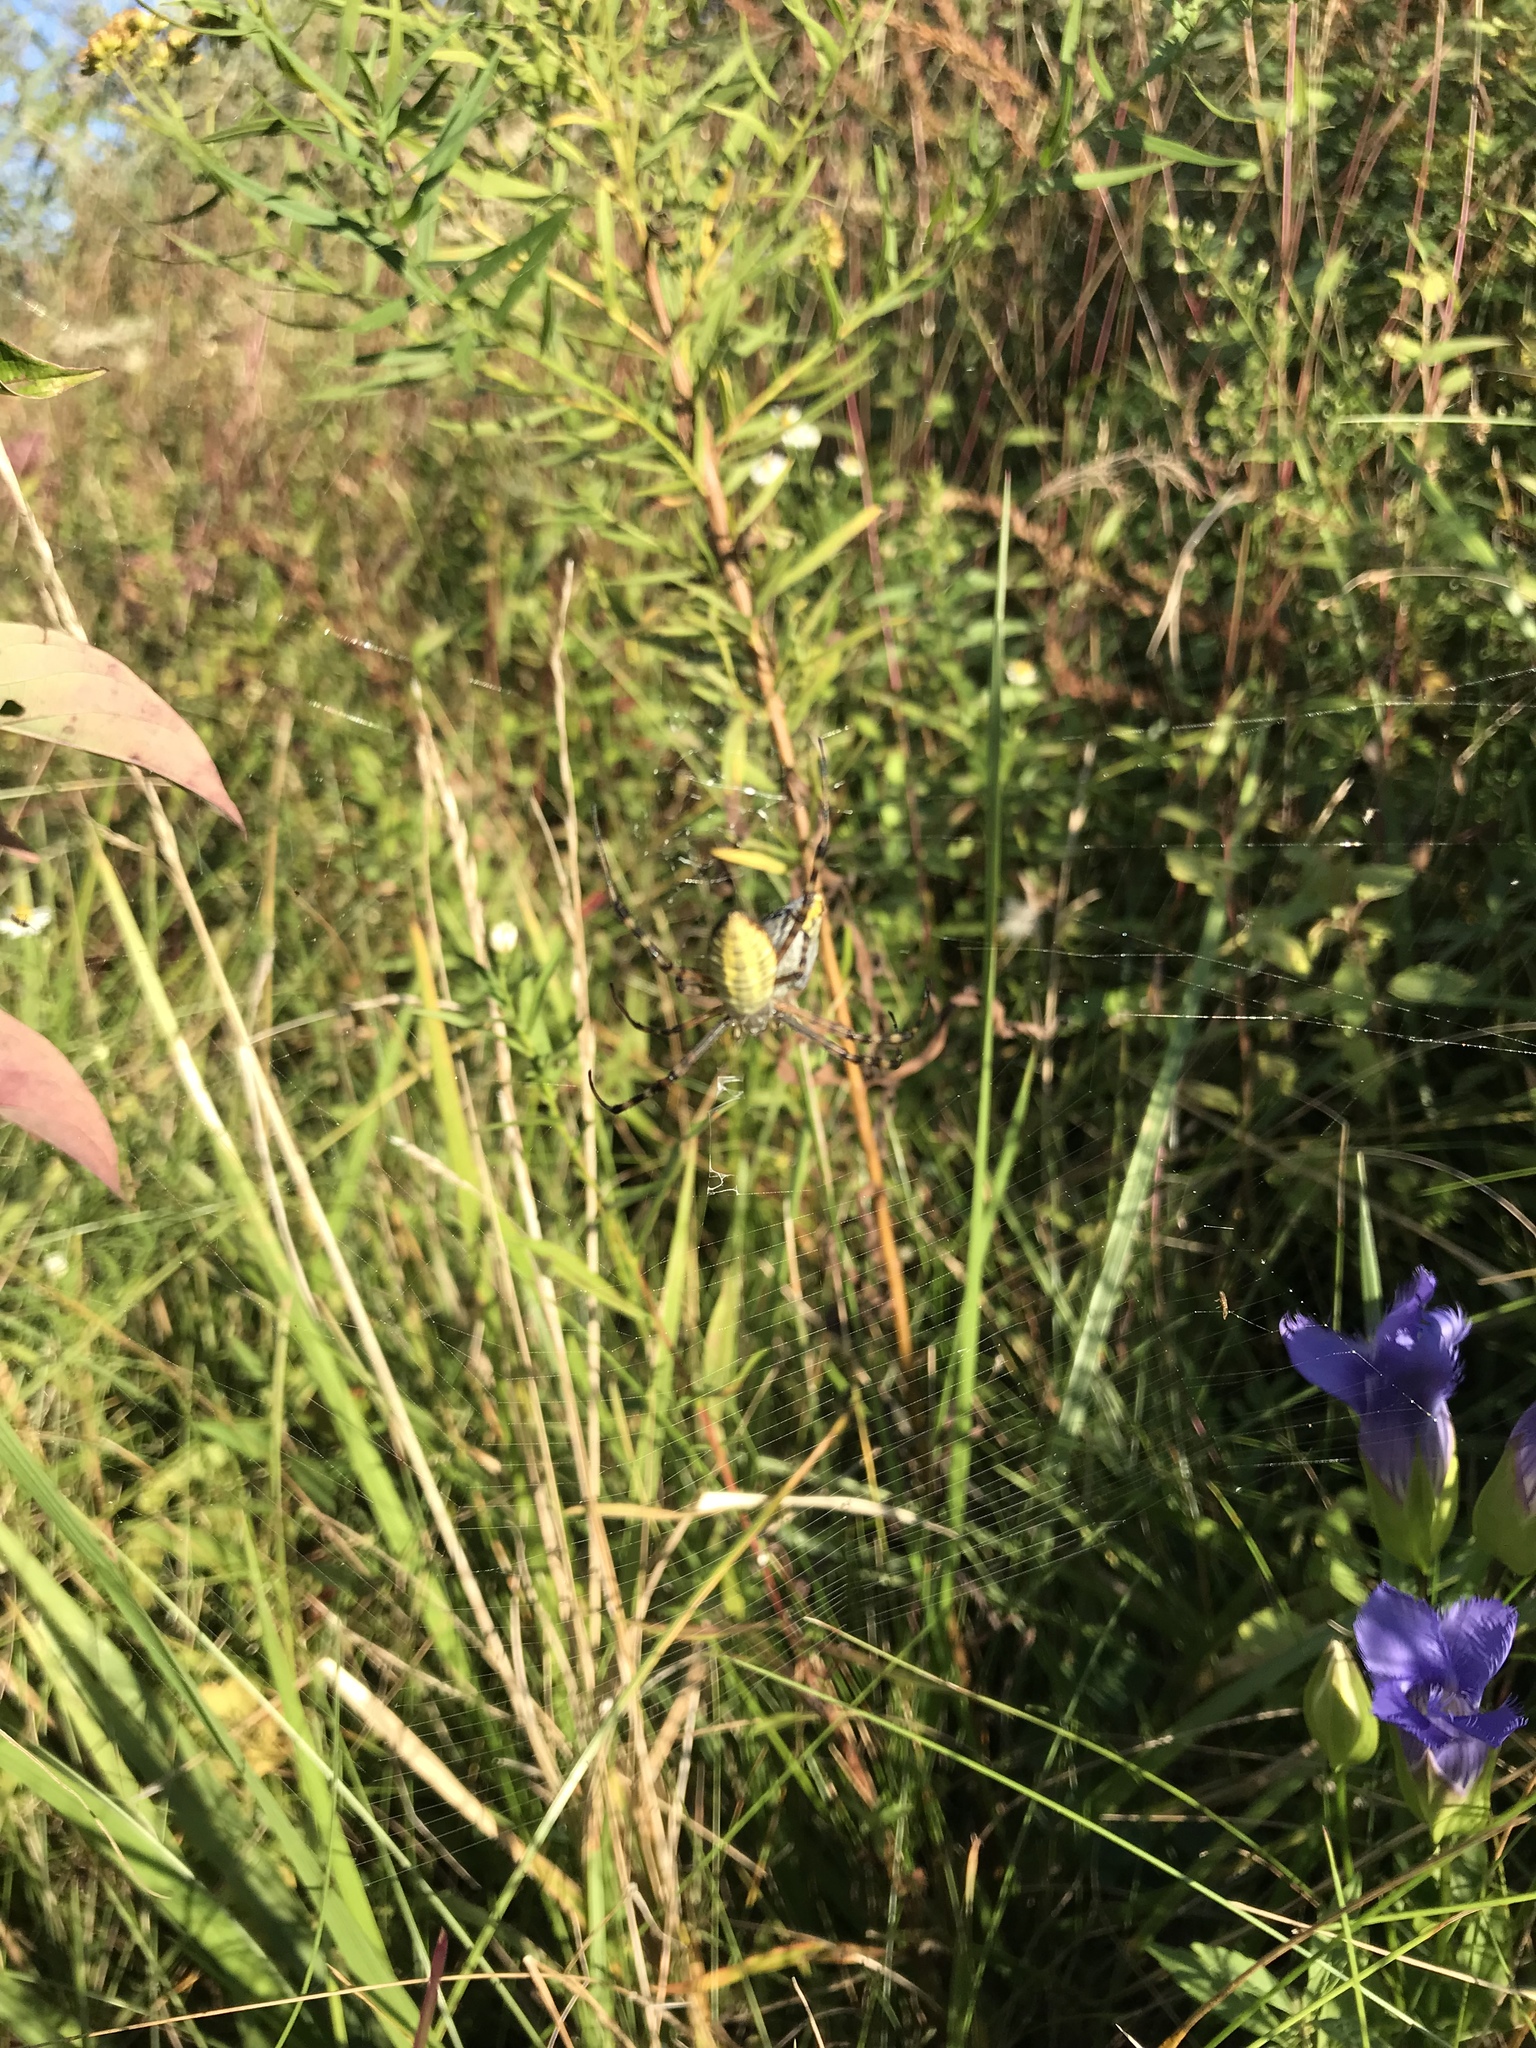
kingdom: Animalia
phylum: Arthropoda
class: Arachnida
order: Araneae
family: Araneidae
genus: Argiope
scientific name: Argiope trifasciata
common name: Banded garden spider
